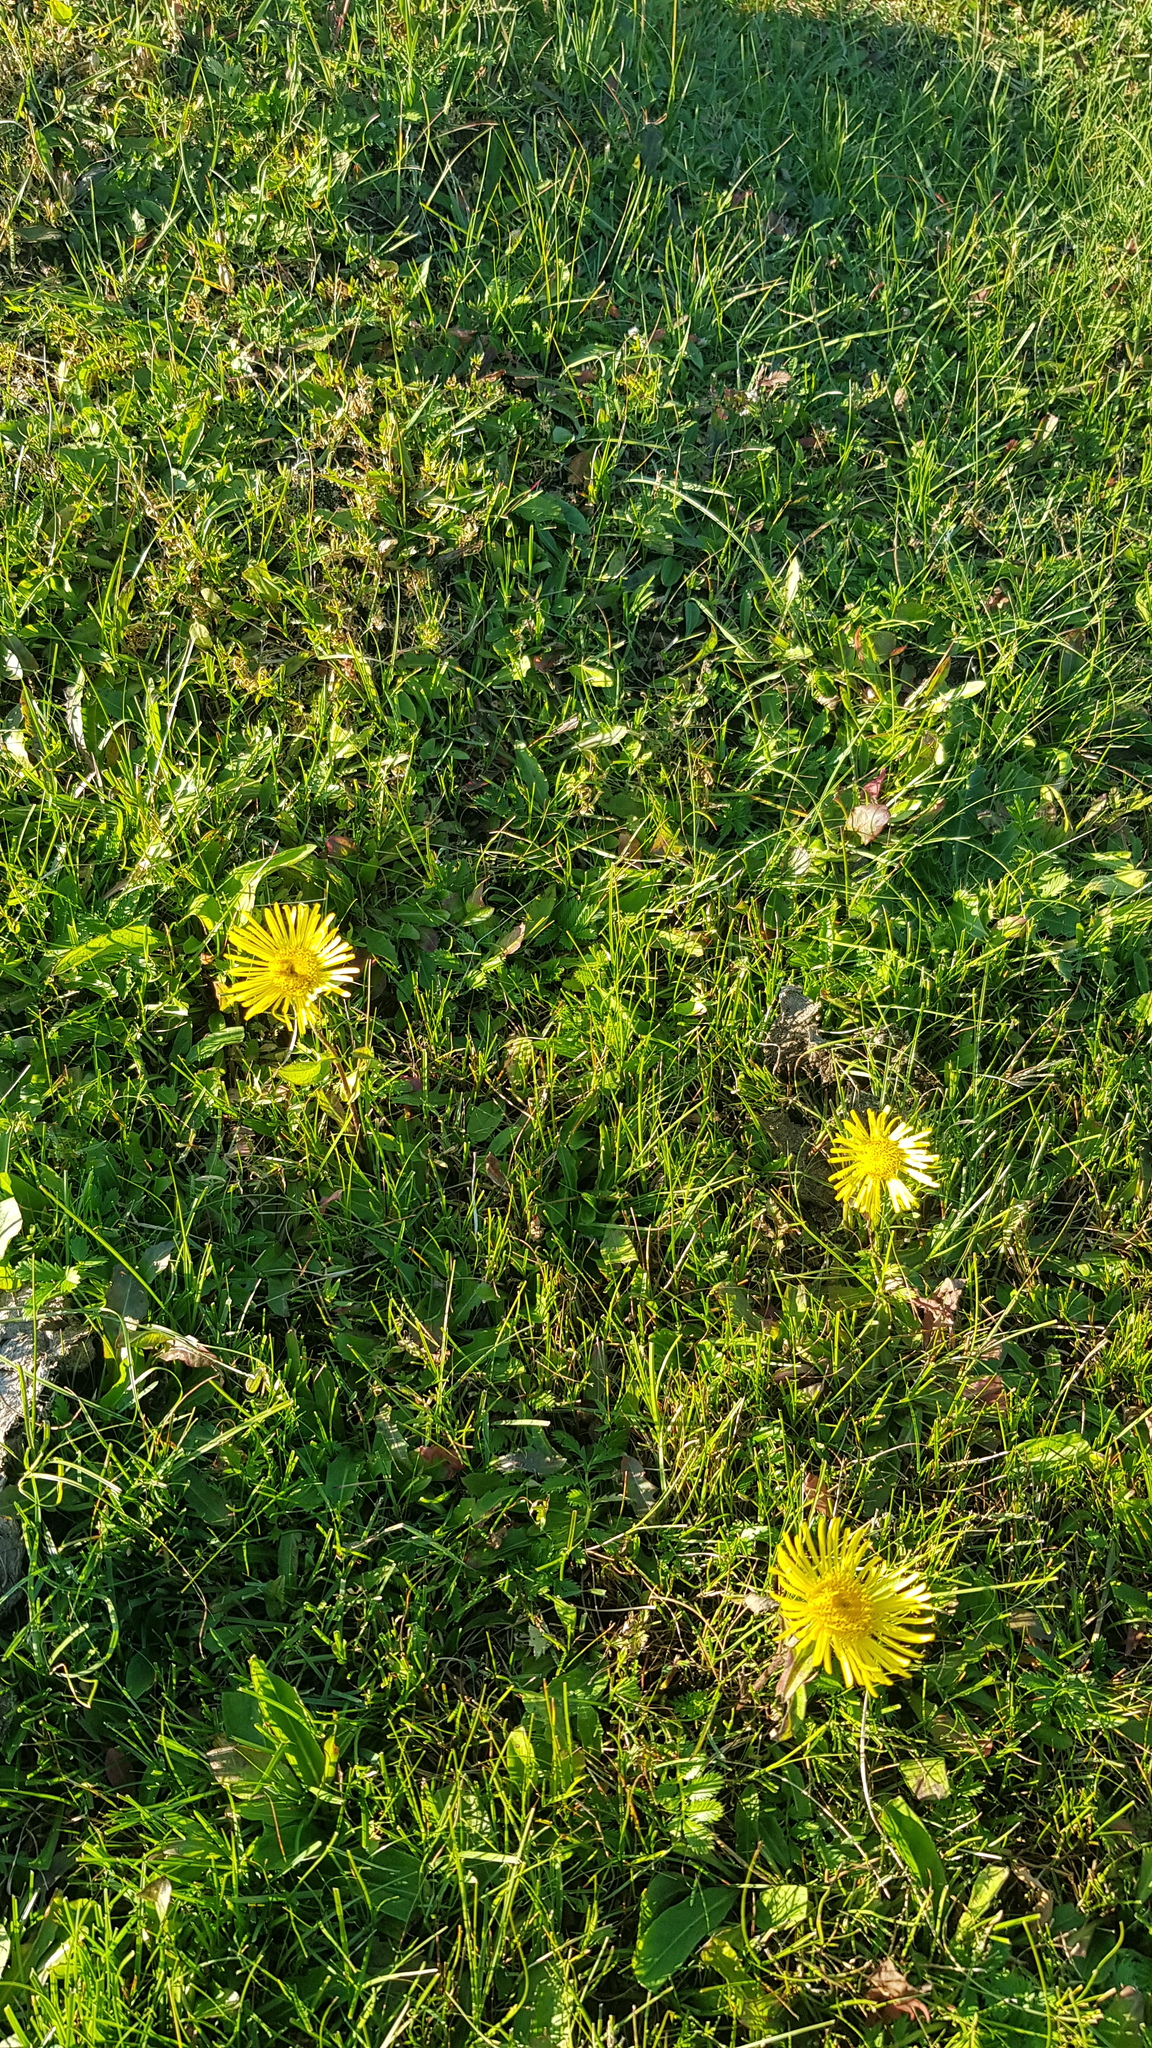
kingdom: Plantae
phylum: Tracheophyta
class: Magnoliopsida
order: Asterales
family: Asteraceae
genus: Pentanema
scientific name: Pentanema britannicum
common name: British elecampane
